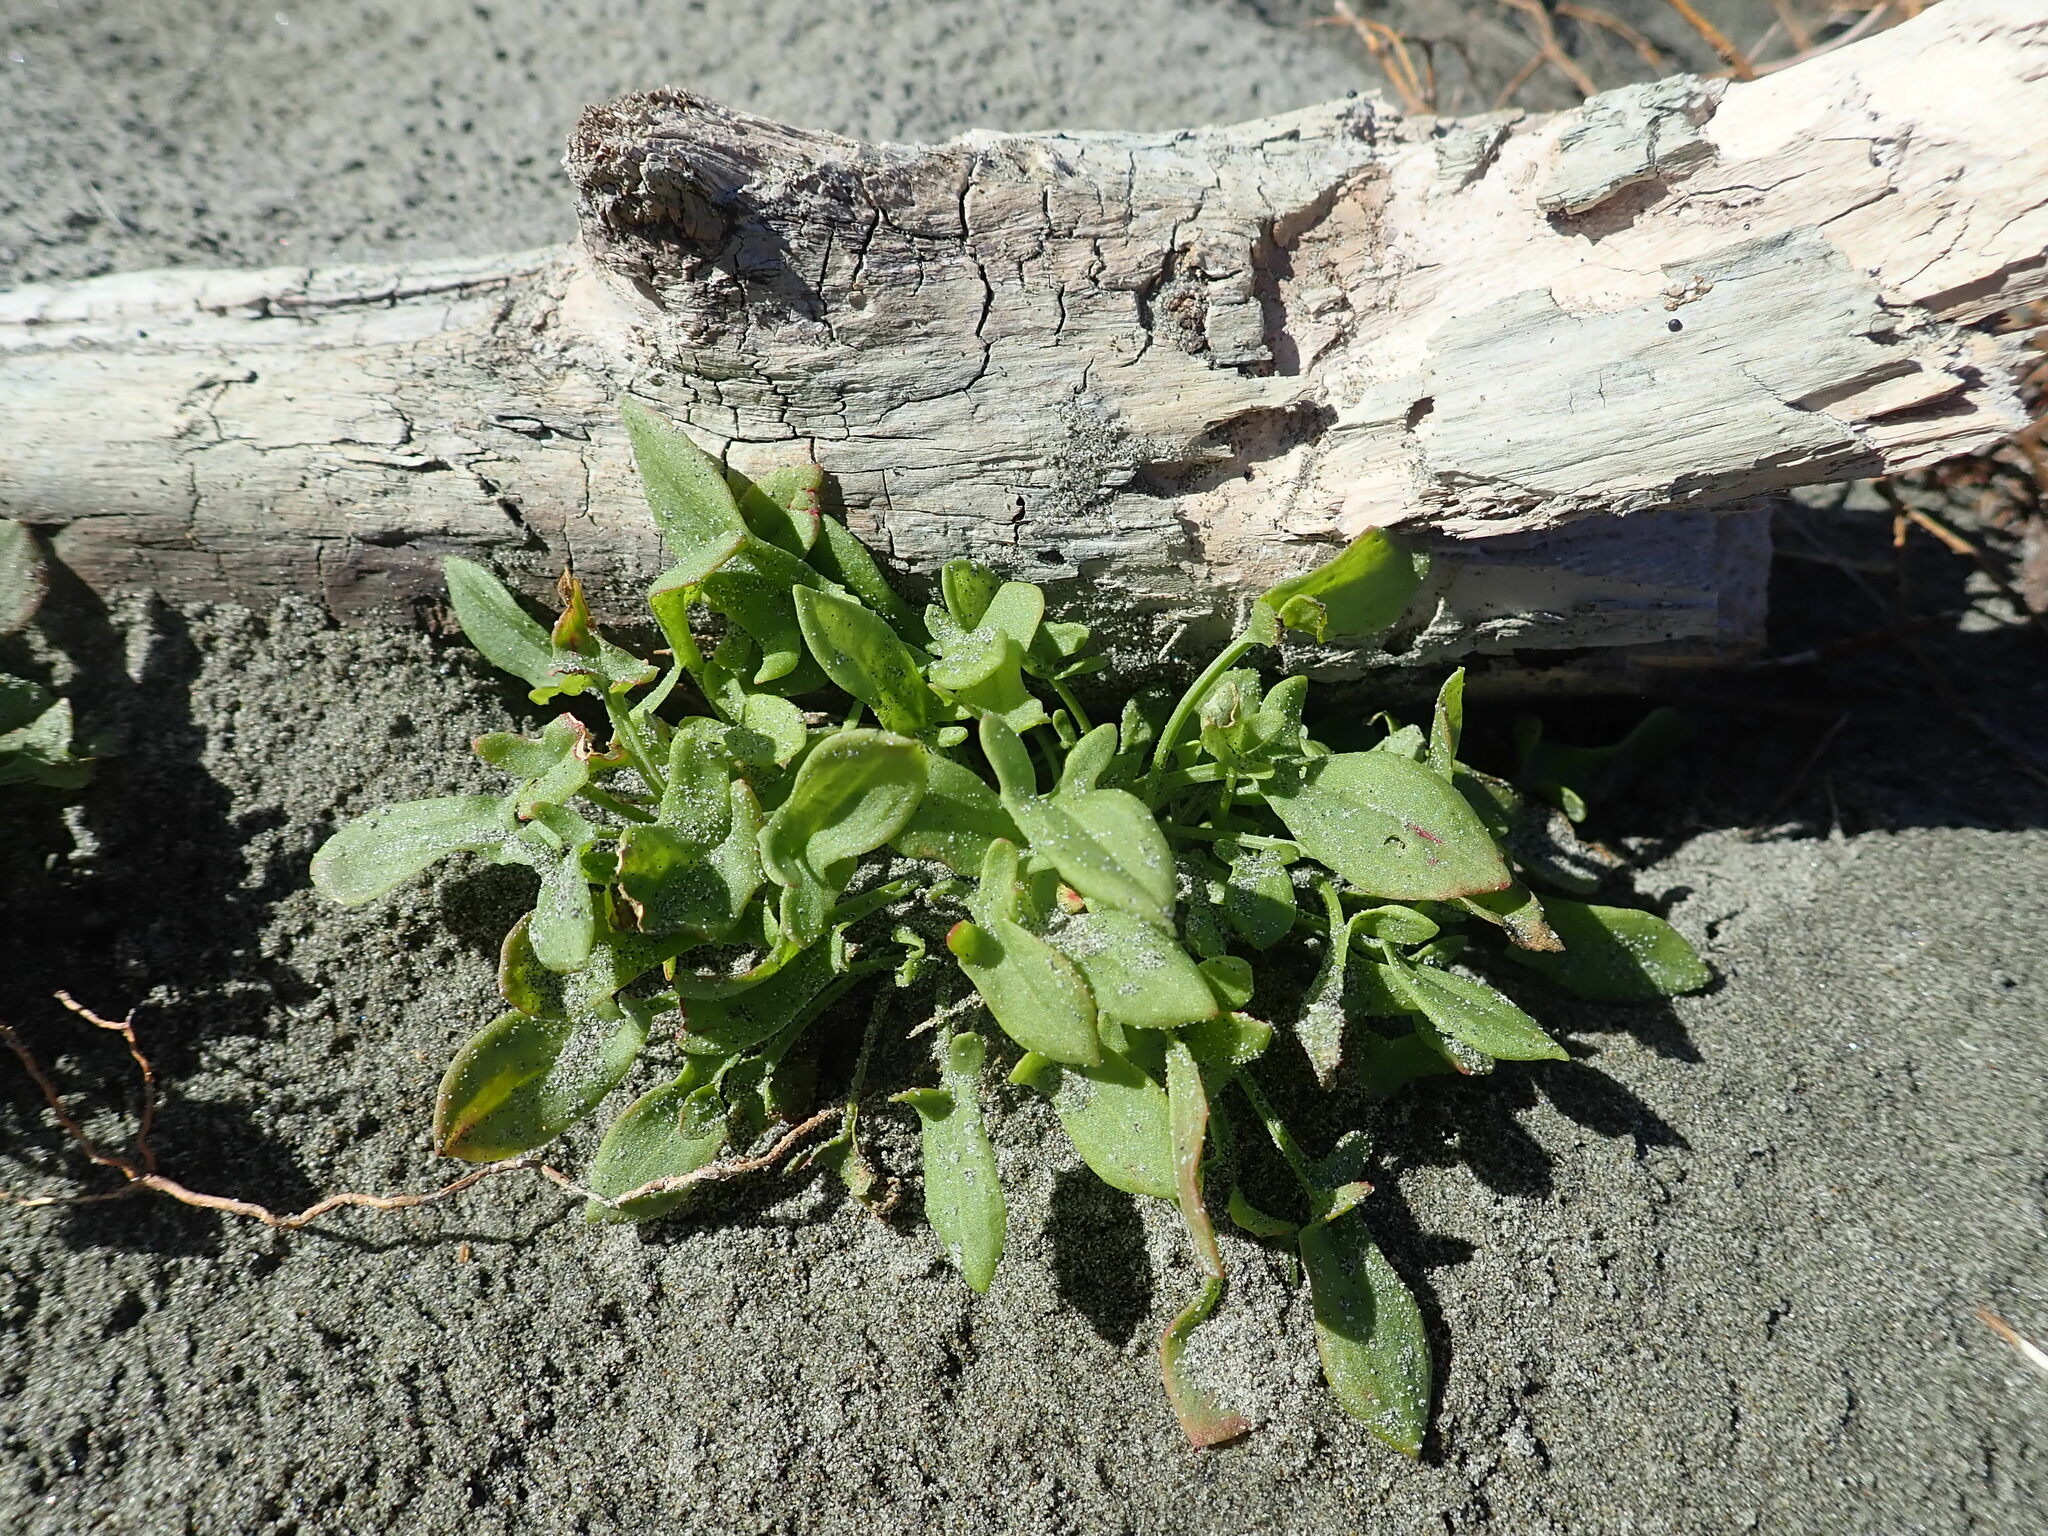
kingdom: Plantae
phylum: Tracheophyta
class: Magnoliopsida
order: Caryophyllales
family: Polygonaceae
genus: Rumex
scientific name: Rumex acetosella
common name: Common sheep sorrel
